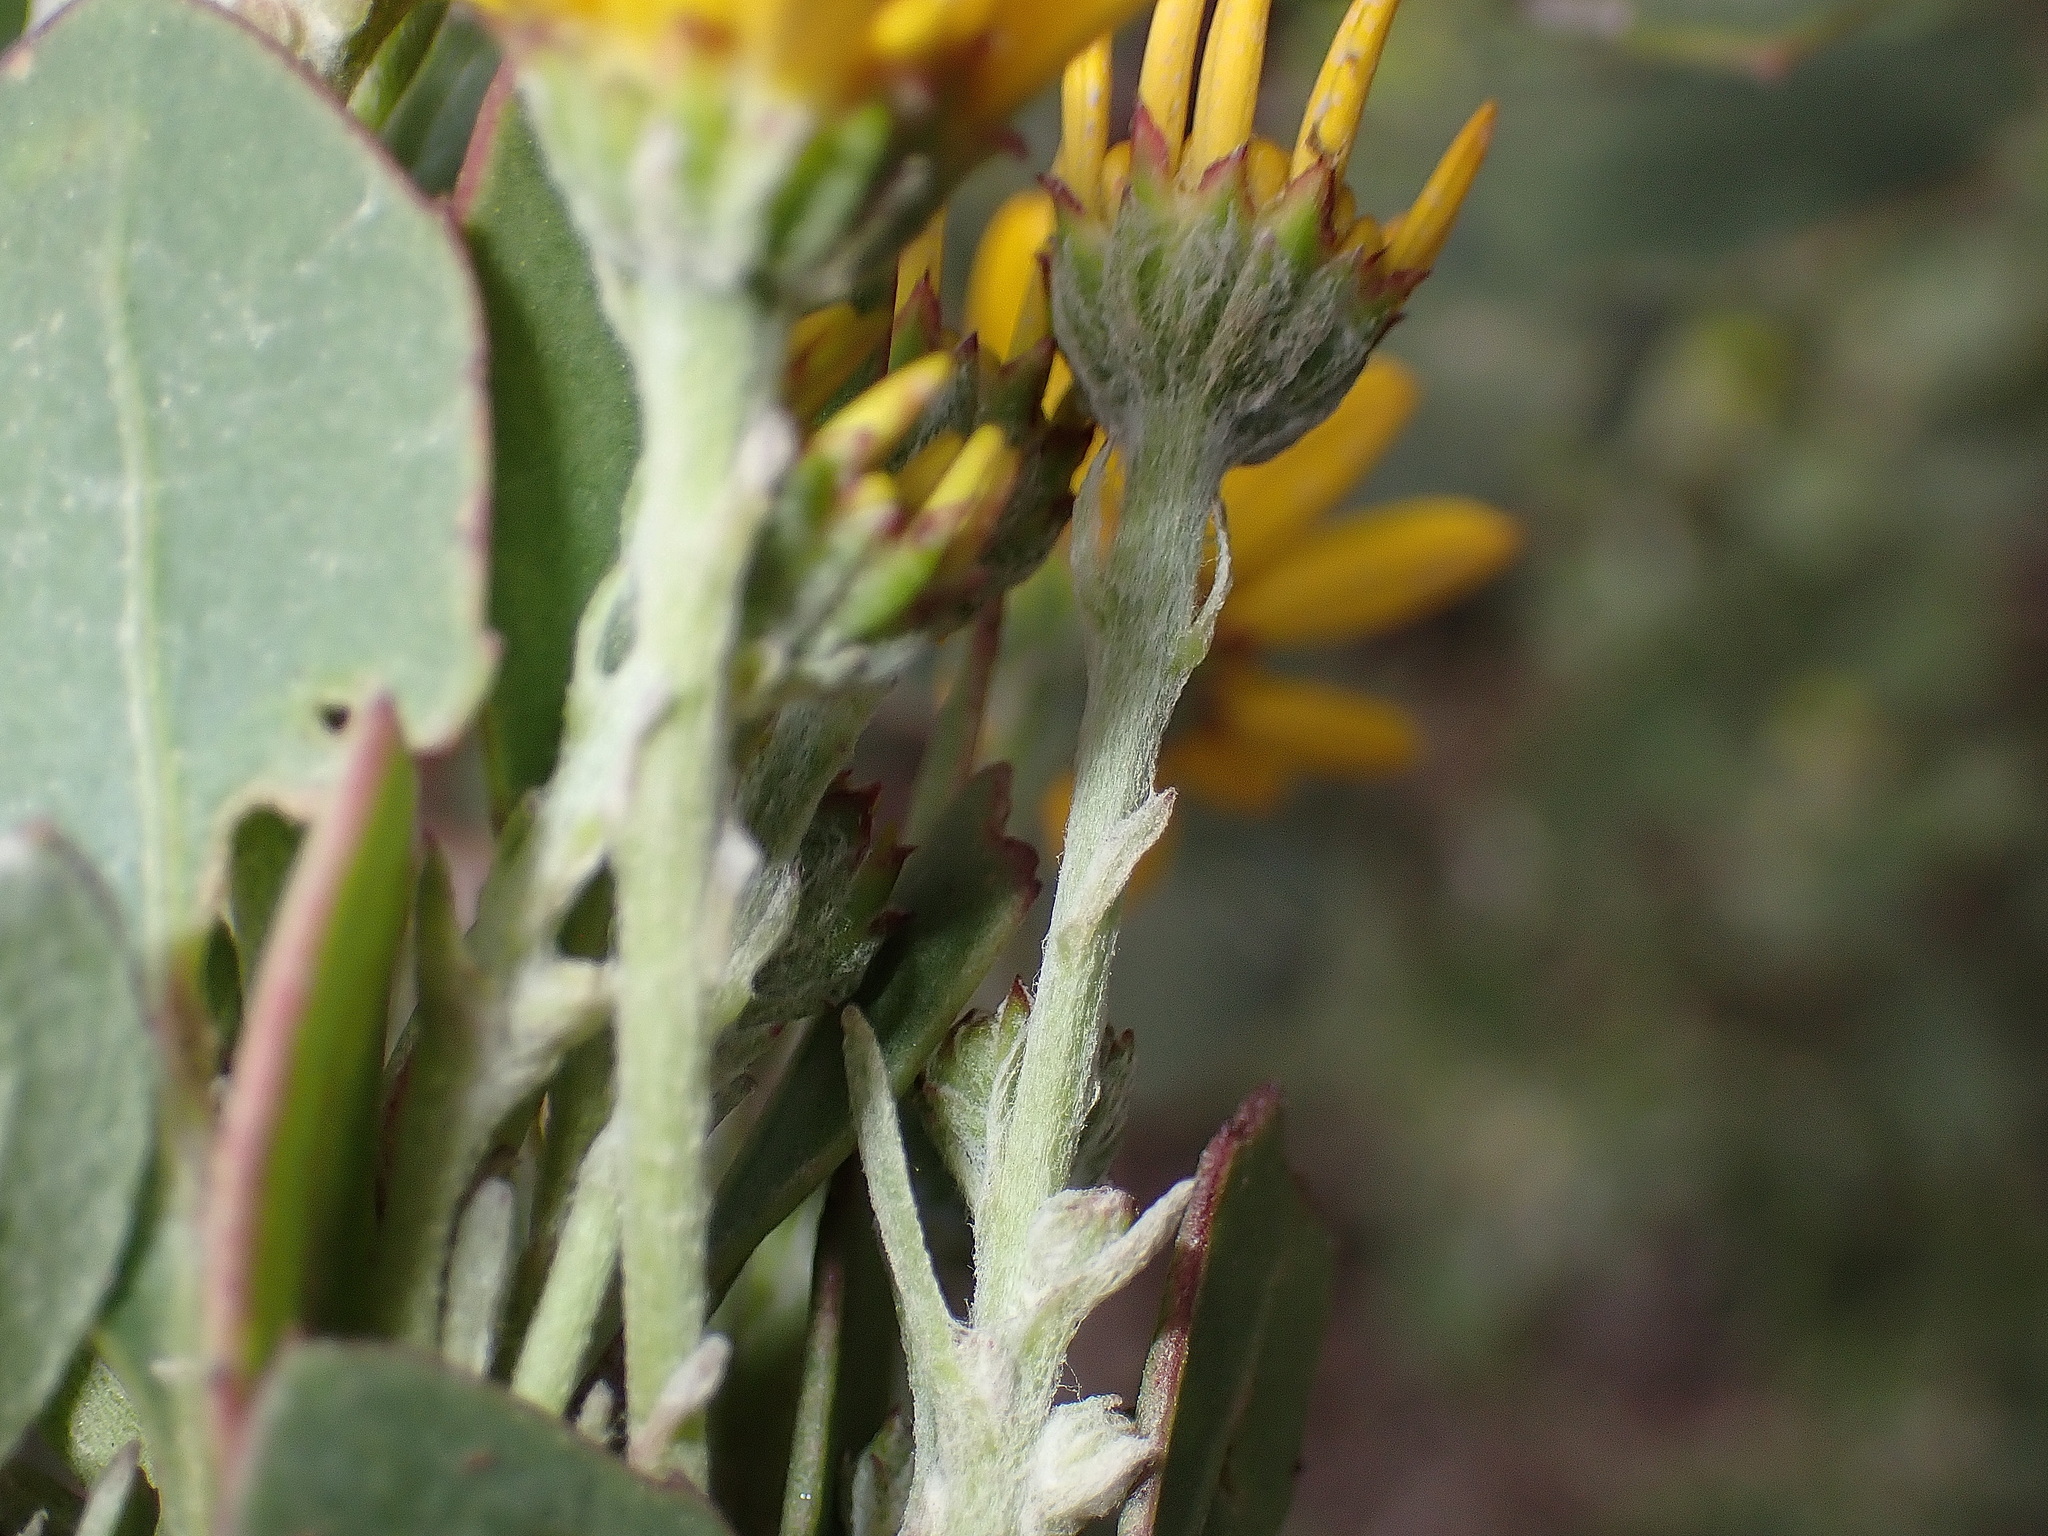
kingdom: Plantae
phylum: Tracheophyta
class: Magnoliopsida
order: Asterales
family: Asteraceae
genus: Osteospermum
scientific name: Osteospermum moniliferum
